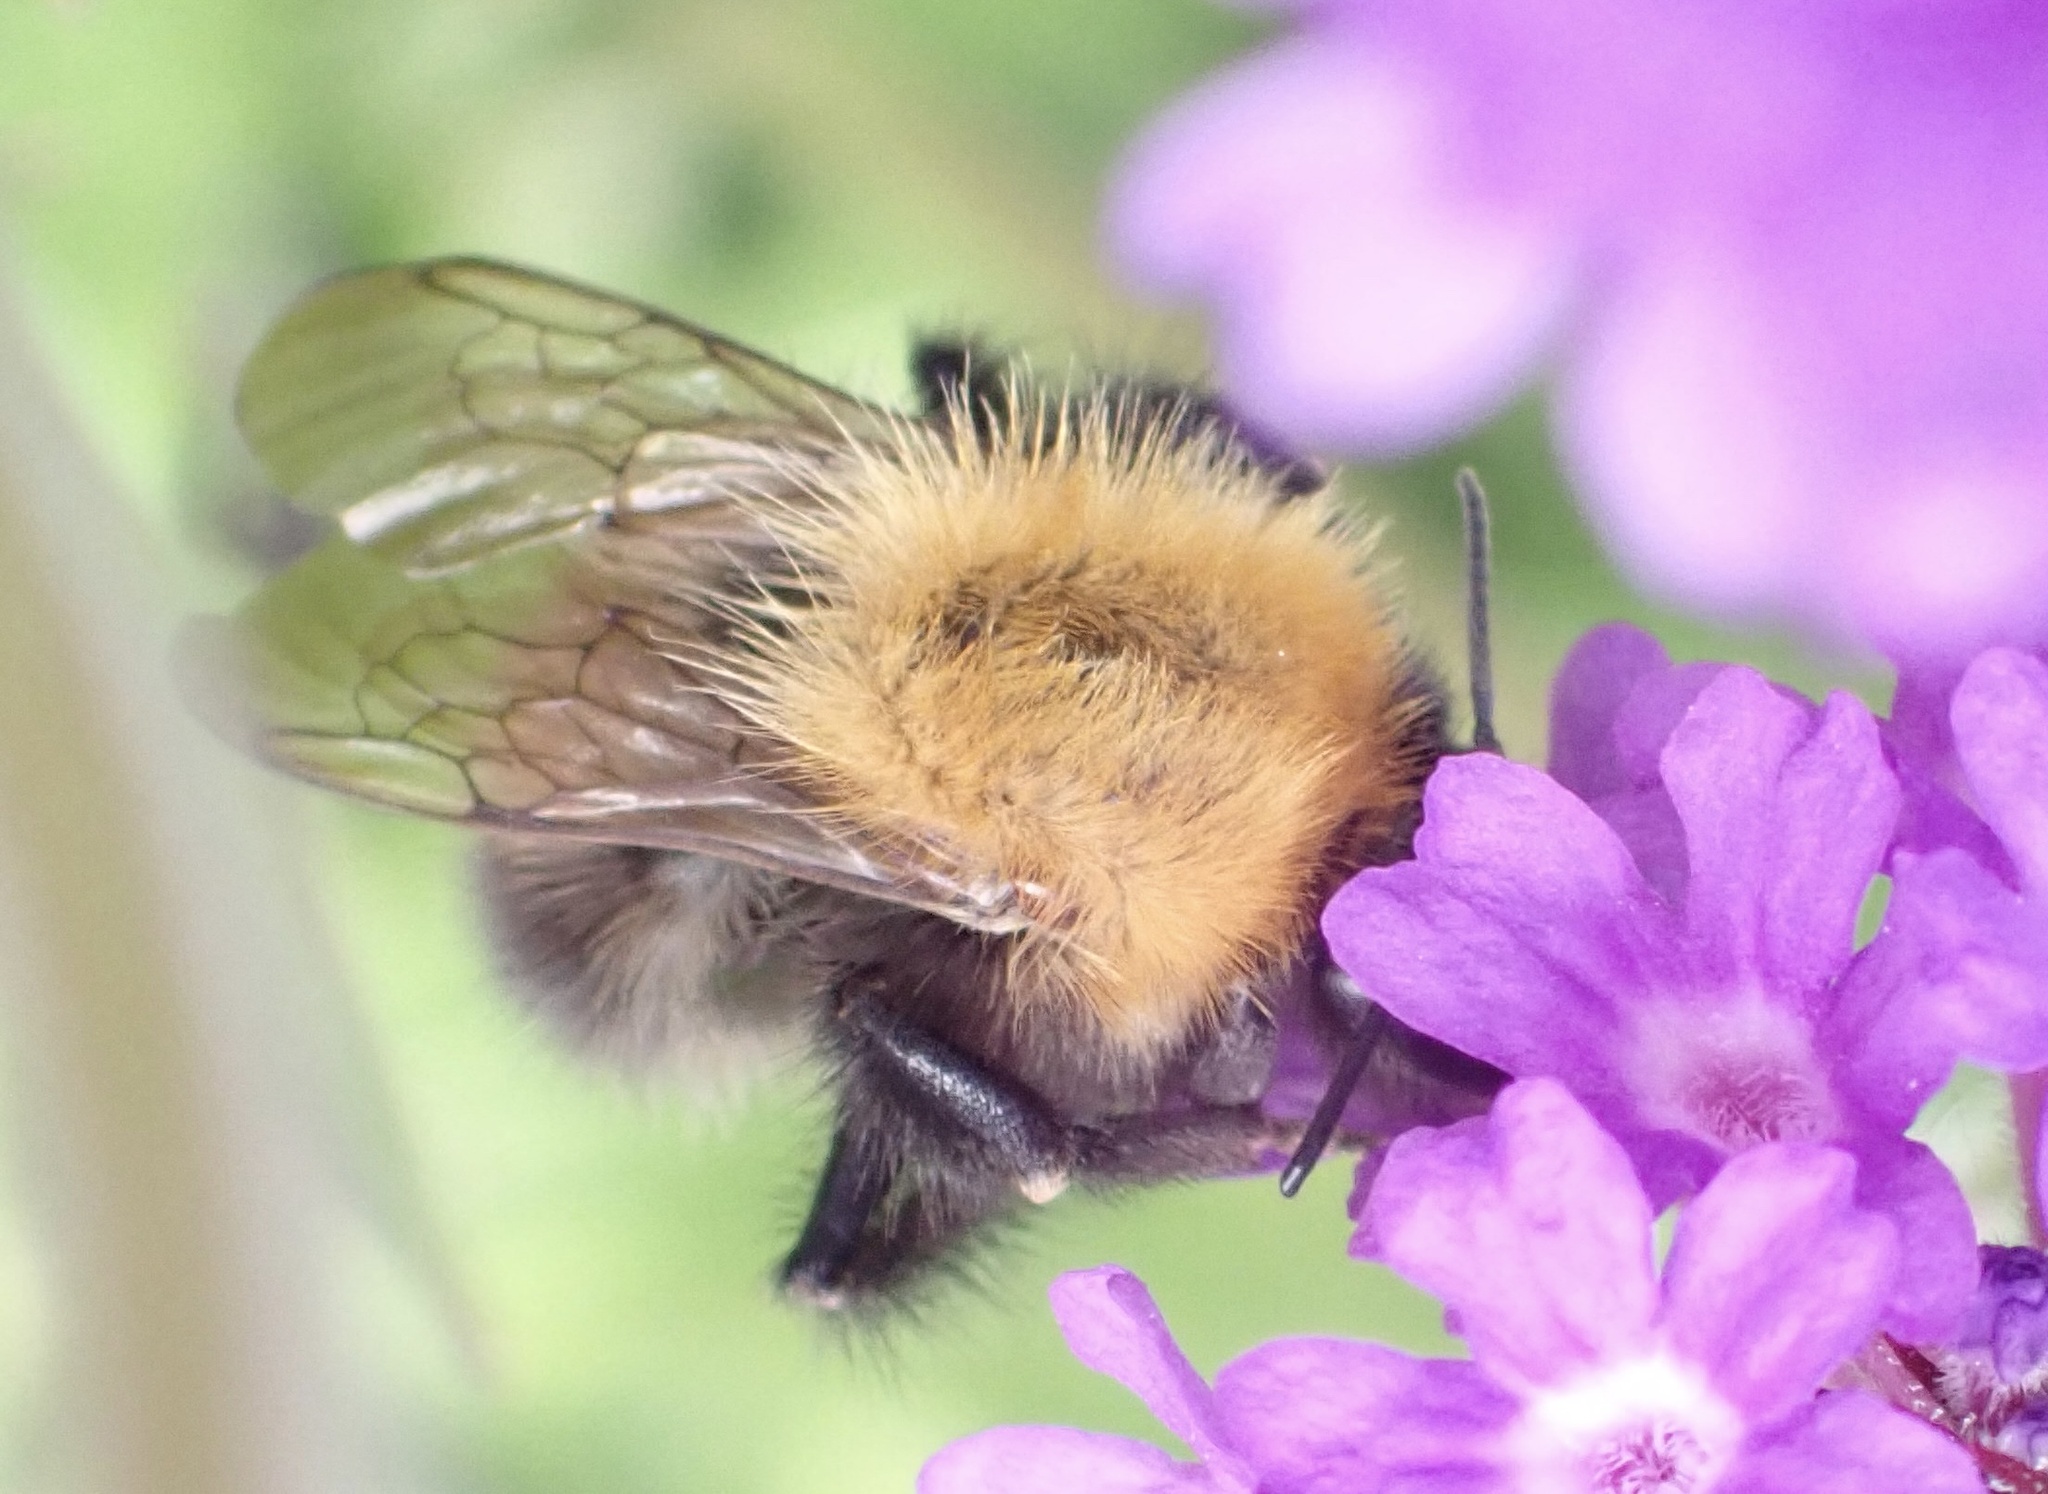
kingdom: Animalia
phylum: Arthropoda
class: Insecta
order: Hymenoptera
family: Apidae
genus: Bombus
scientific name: Bombus hypnorum
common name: New garden bumblebee
